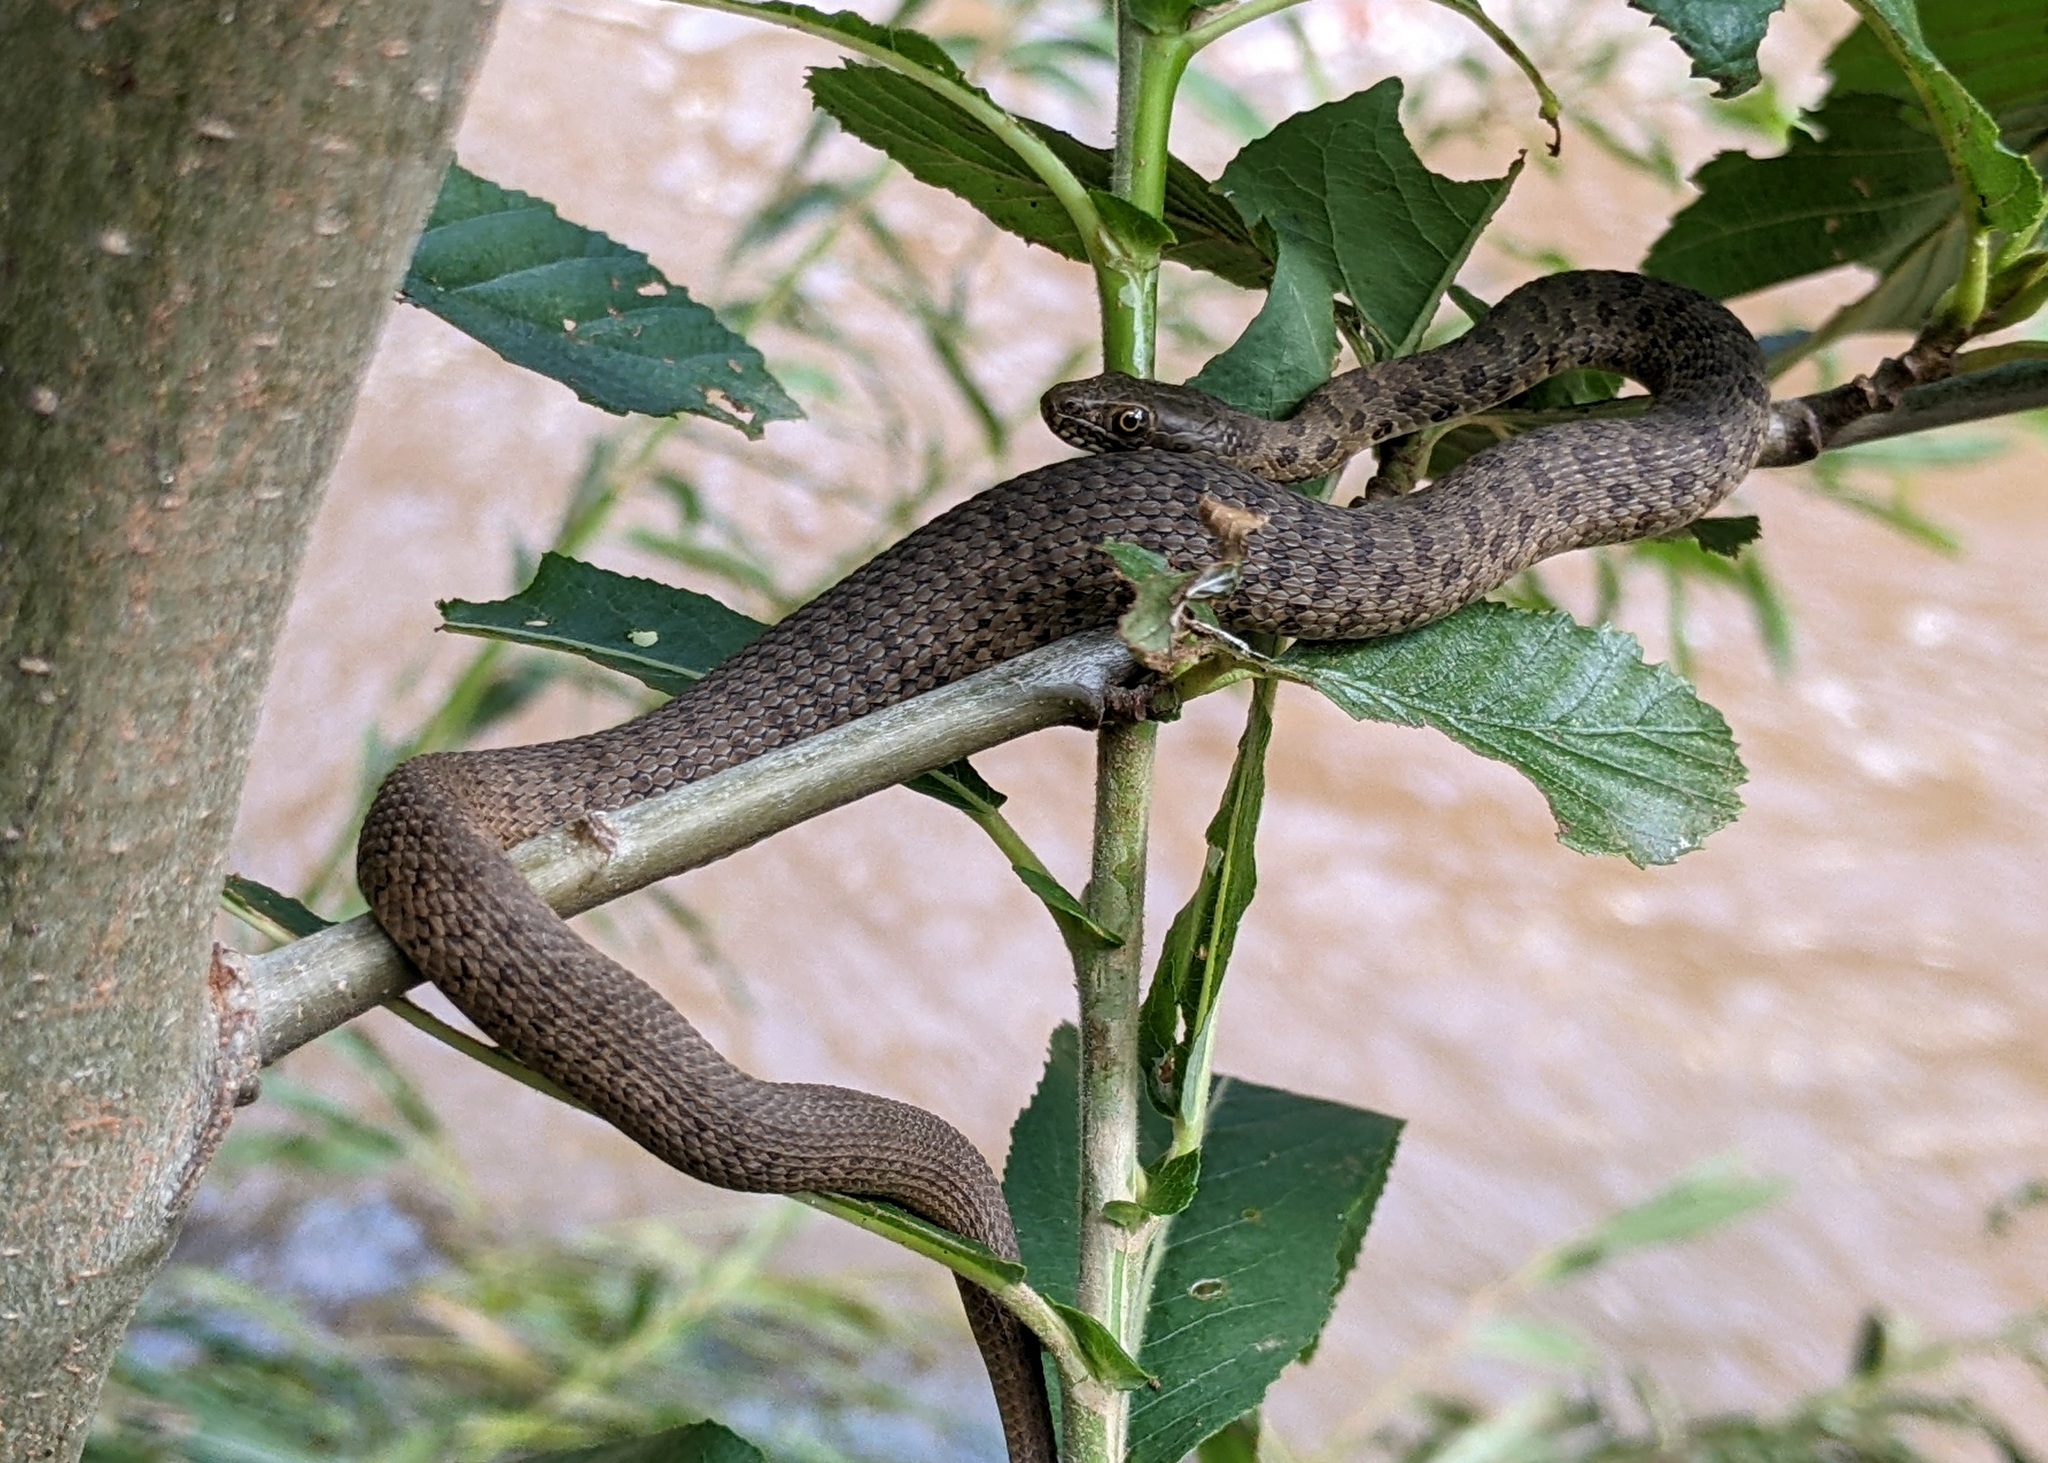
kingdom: Animalia
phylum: Chordata
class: Squamata
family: Colubridae
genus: Thamnophis
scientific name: Thamnophis rufipunctatus
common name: Narrowhead garter snake
